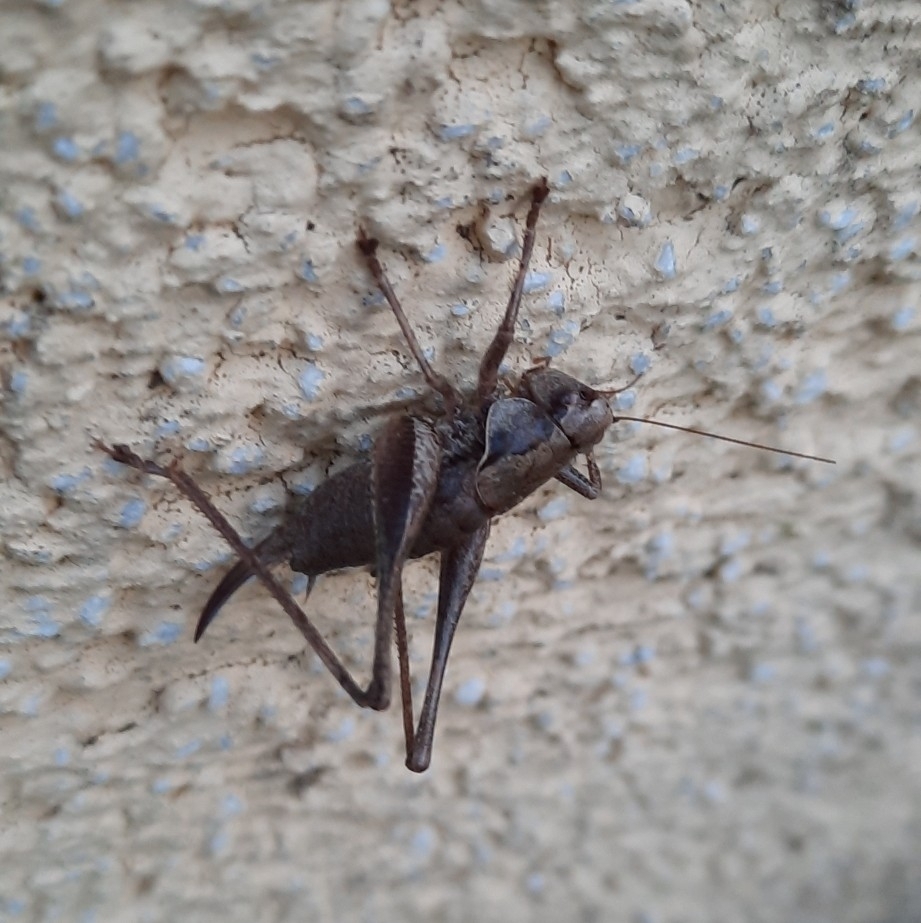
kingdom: Animalia
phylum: Arthropoda
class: Insecta
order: Orthoptera
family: Tettigoniidae
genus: Pholidoptera
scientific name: Pholidoptera griseoaptera
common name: Dark bush-cricket
